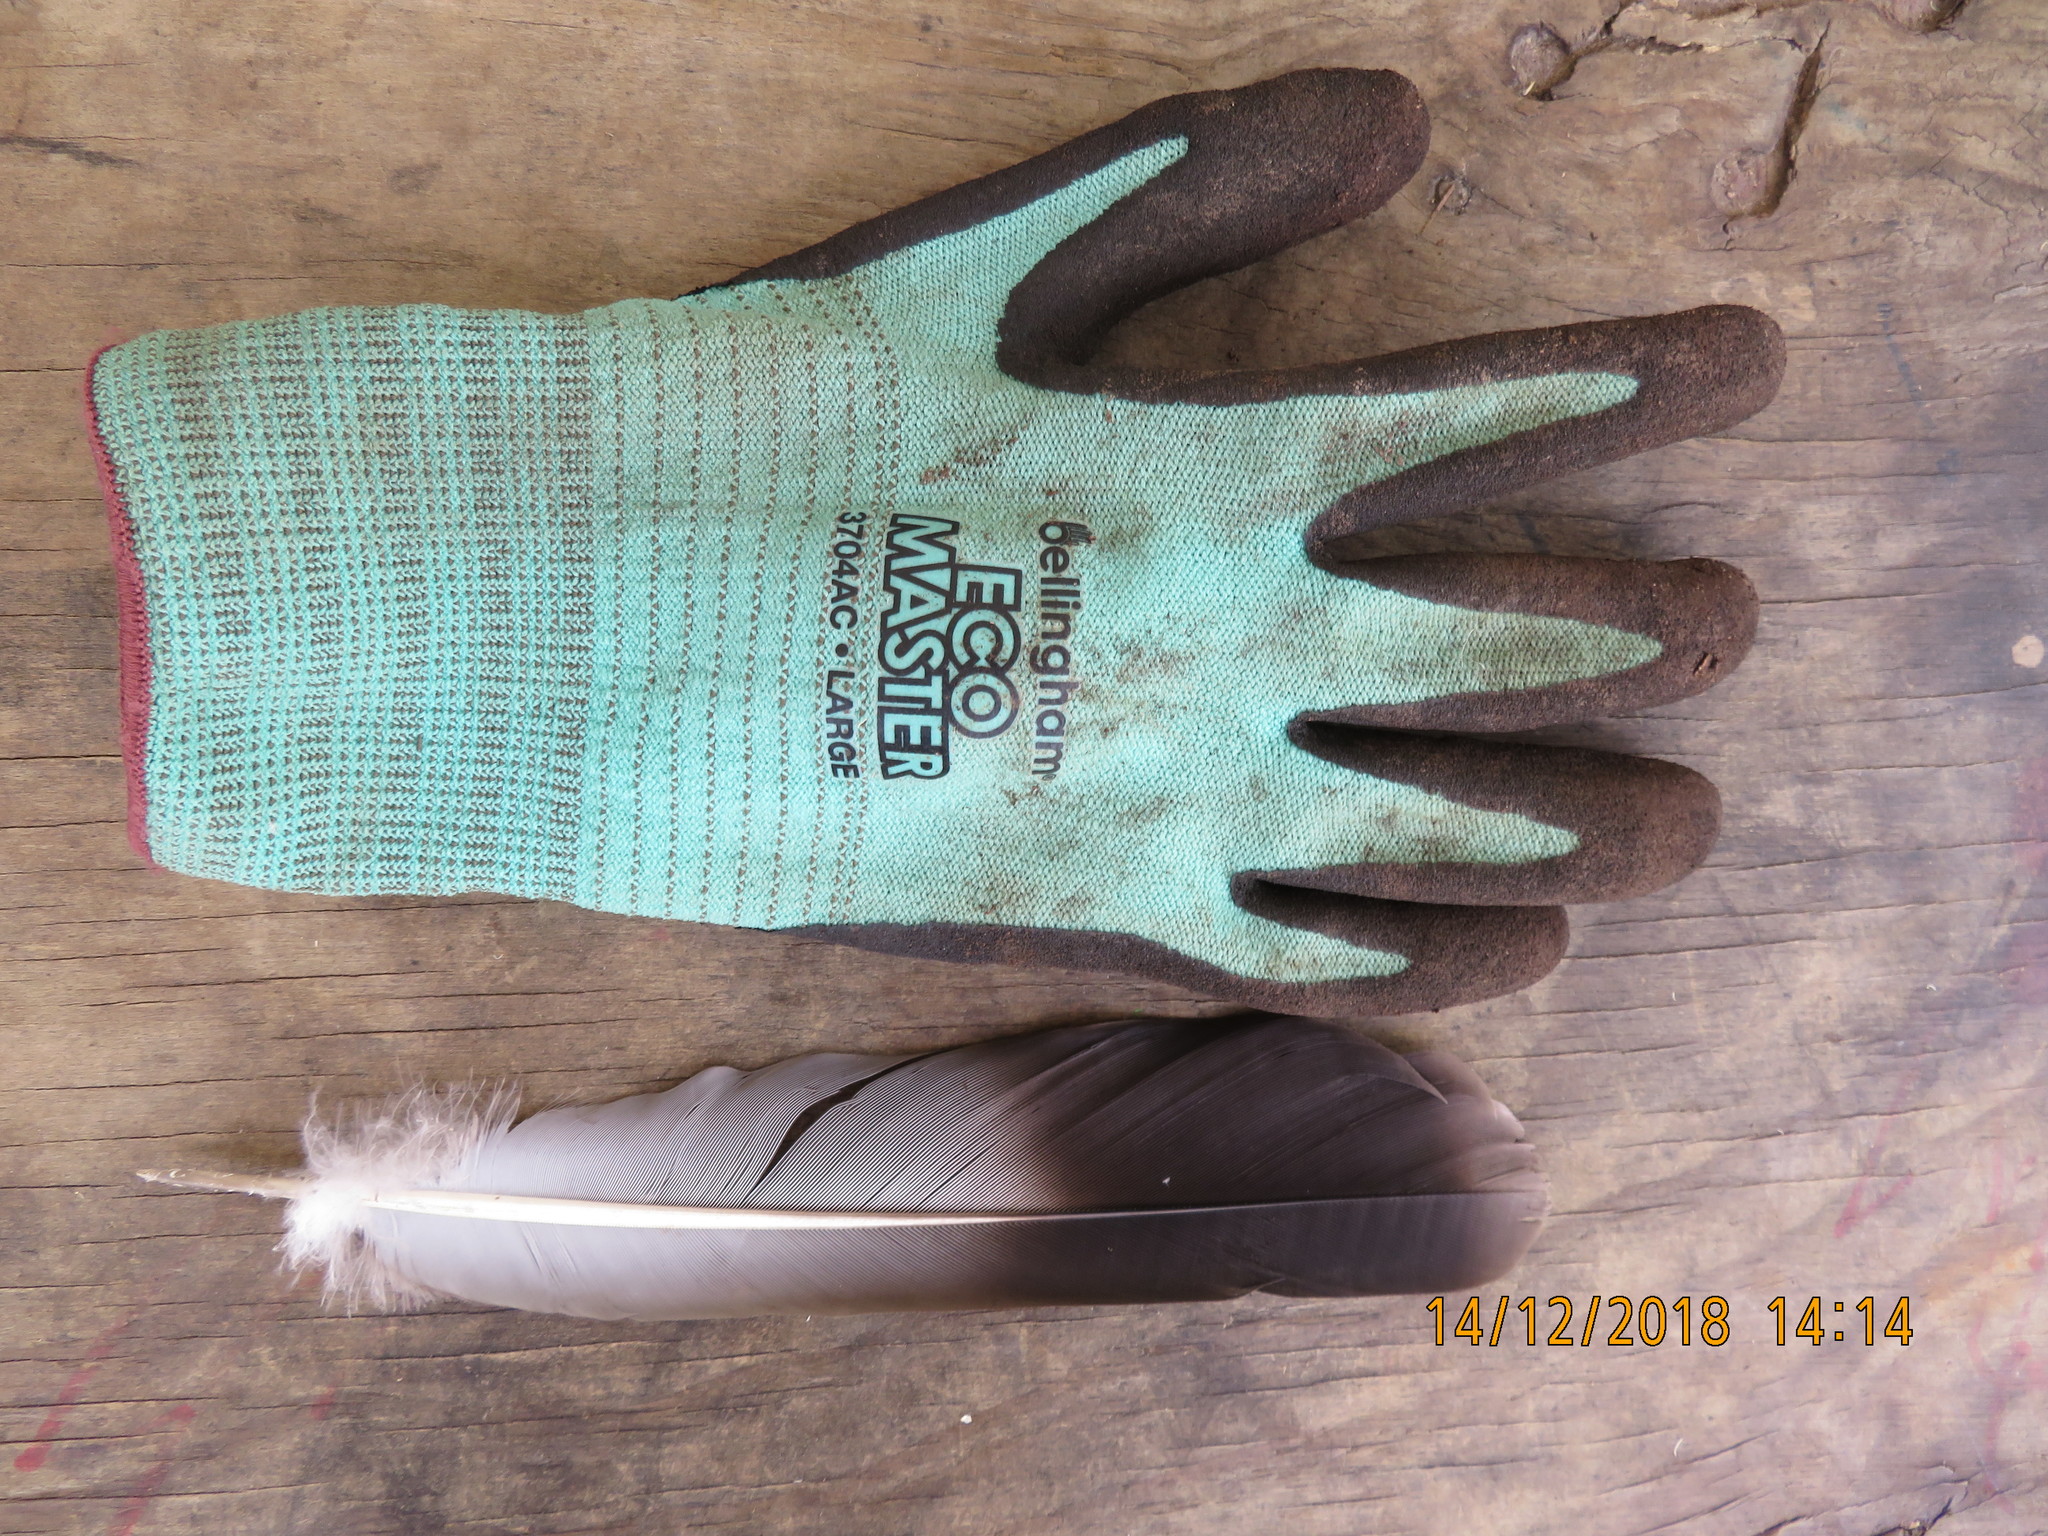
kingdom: Animalia
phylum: Chordata
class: Aves
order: Columbiformes
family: Columbidae
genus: Hemiphaga
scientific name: Hemiphaga novaeseelandiae
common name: New zealand pigeon
